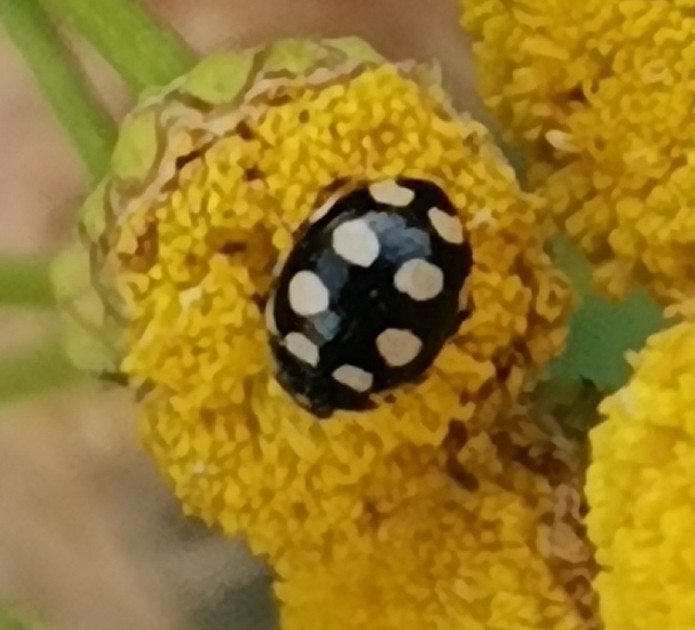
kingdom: Animalia
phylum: Arthropoda
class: Insecta
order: Coleoptera
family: Coccinellidae
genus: Coccinula
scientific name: Coccinula quatuordecimpustulata
